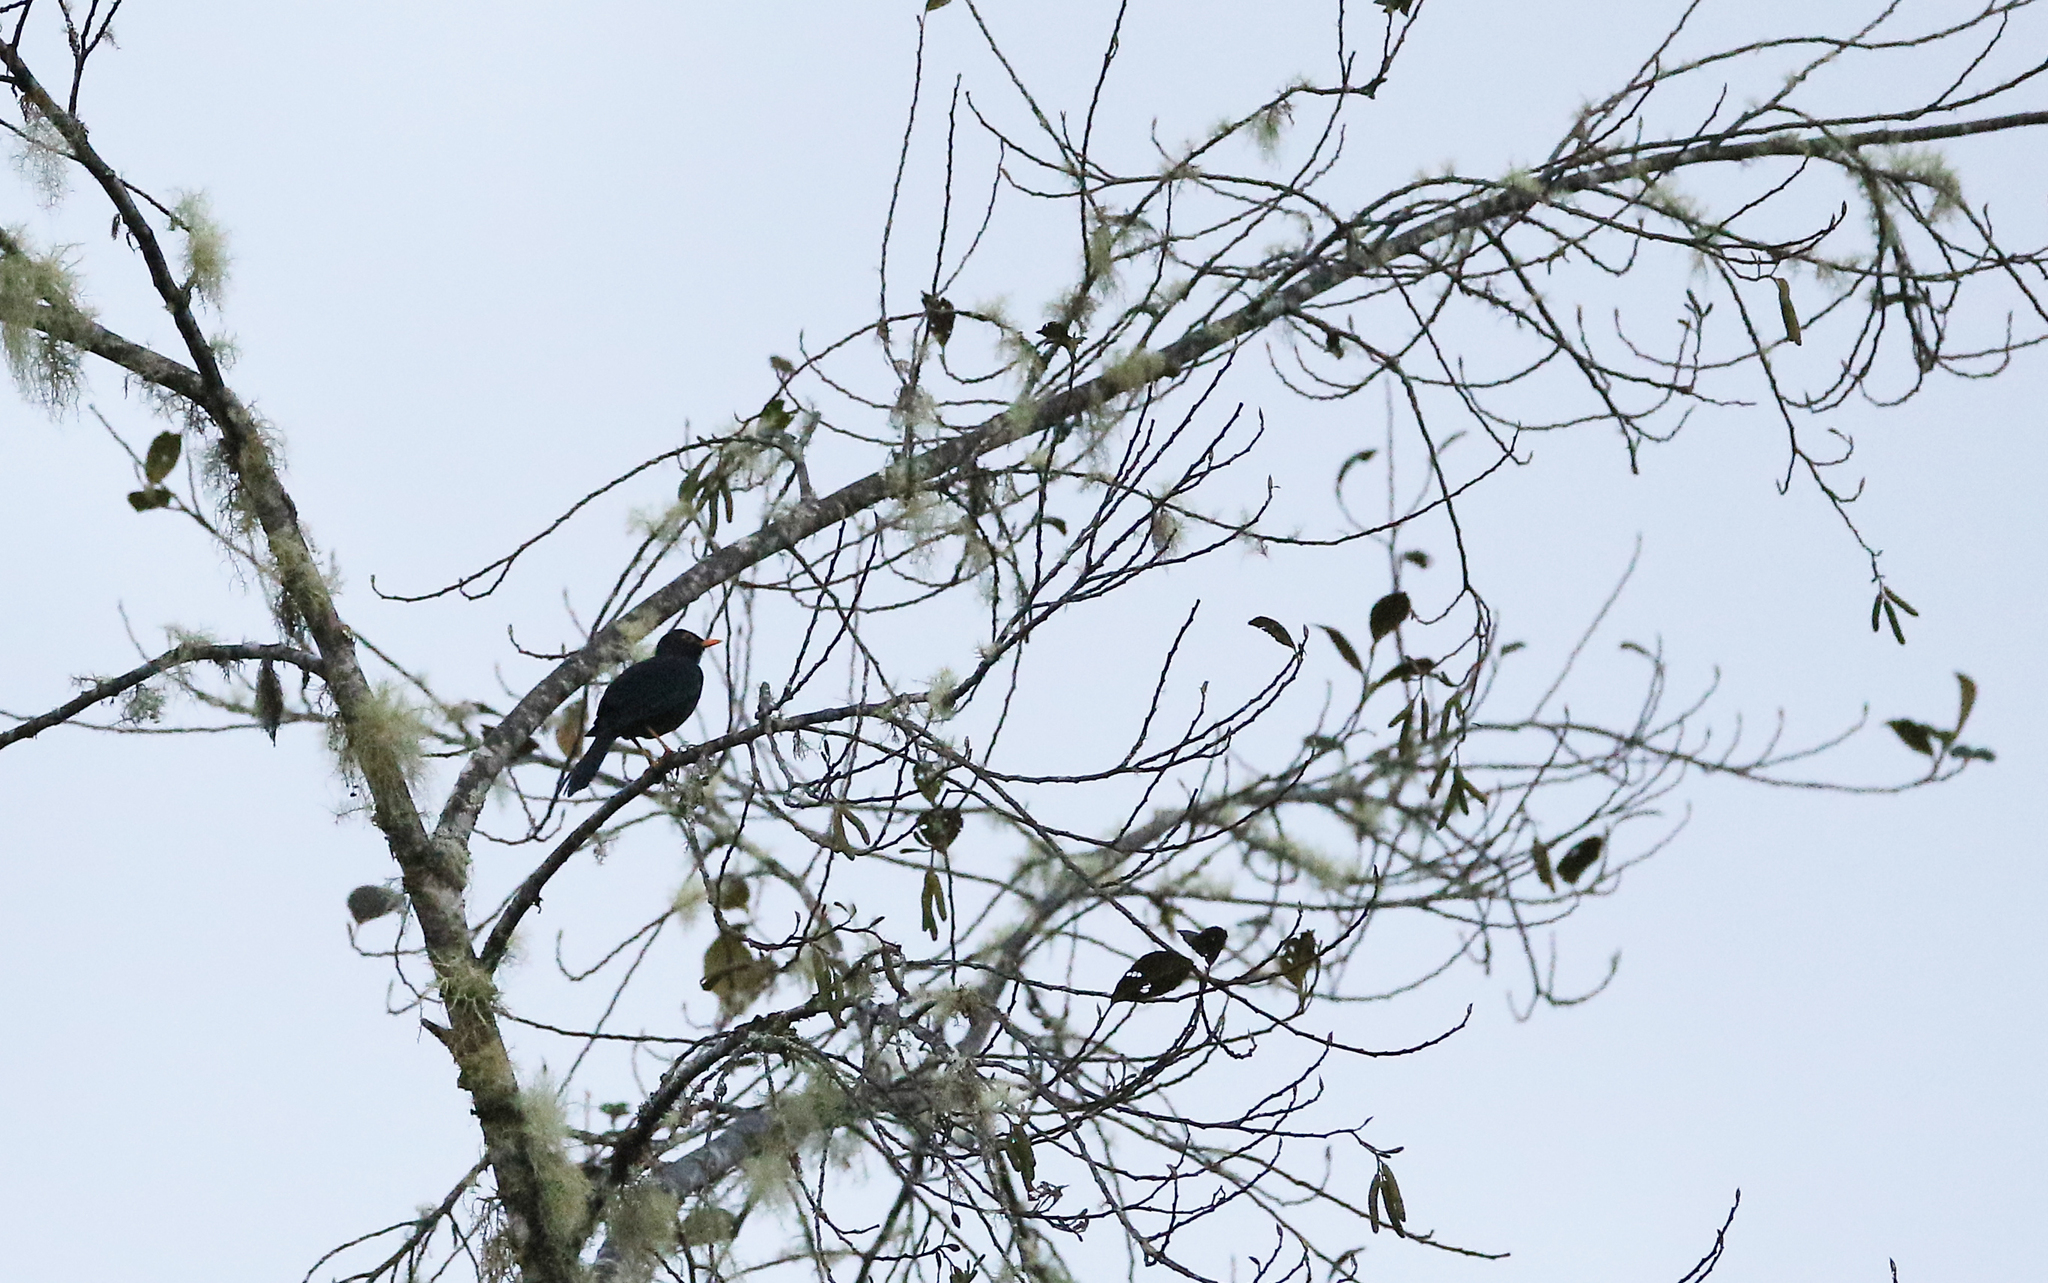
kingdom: Animalia
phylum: Chordata
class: Aves
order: Passeriformes
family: Turdidae
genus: Turdus
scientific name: Turdus serranus
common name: Glossy-black thrush
